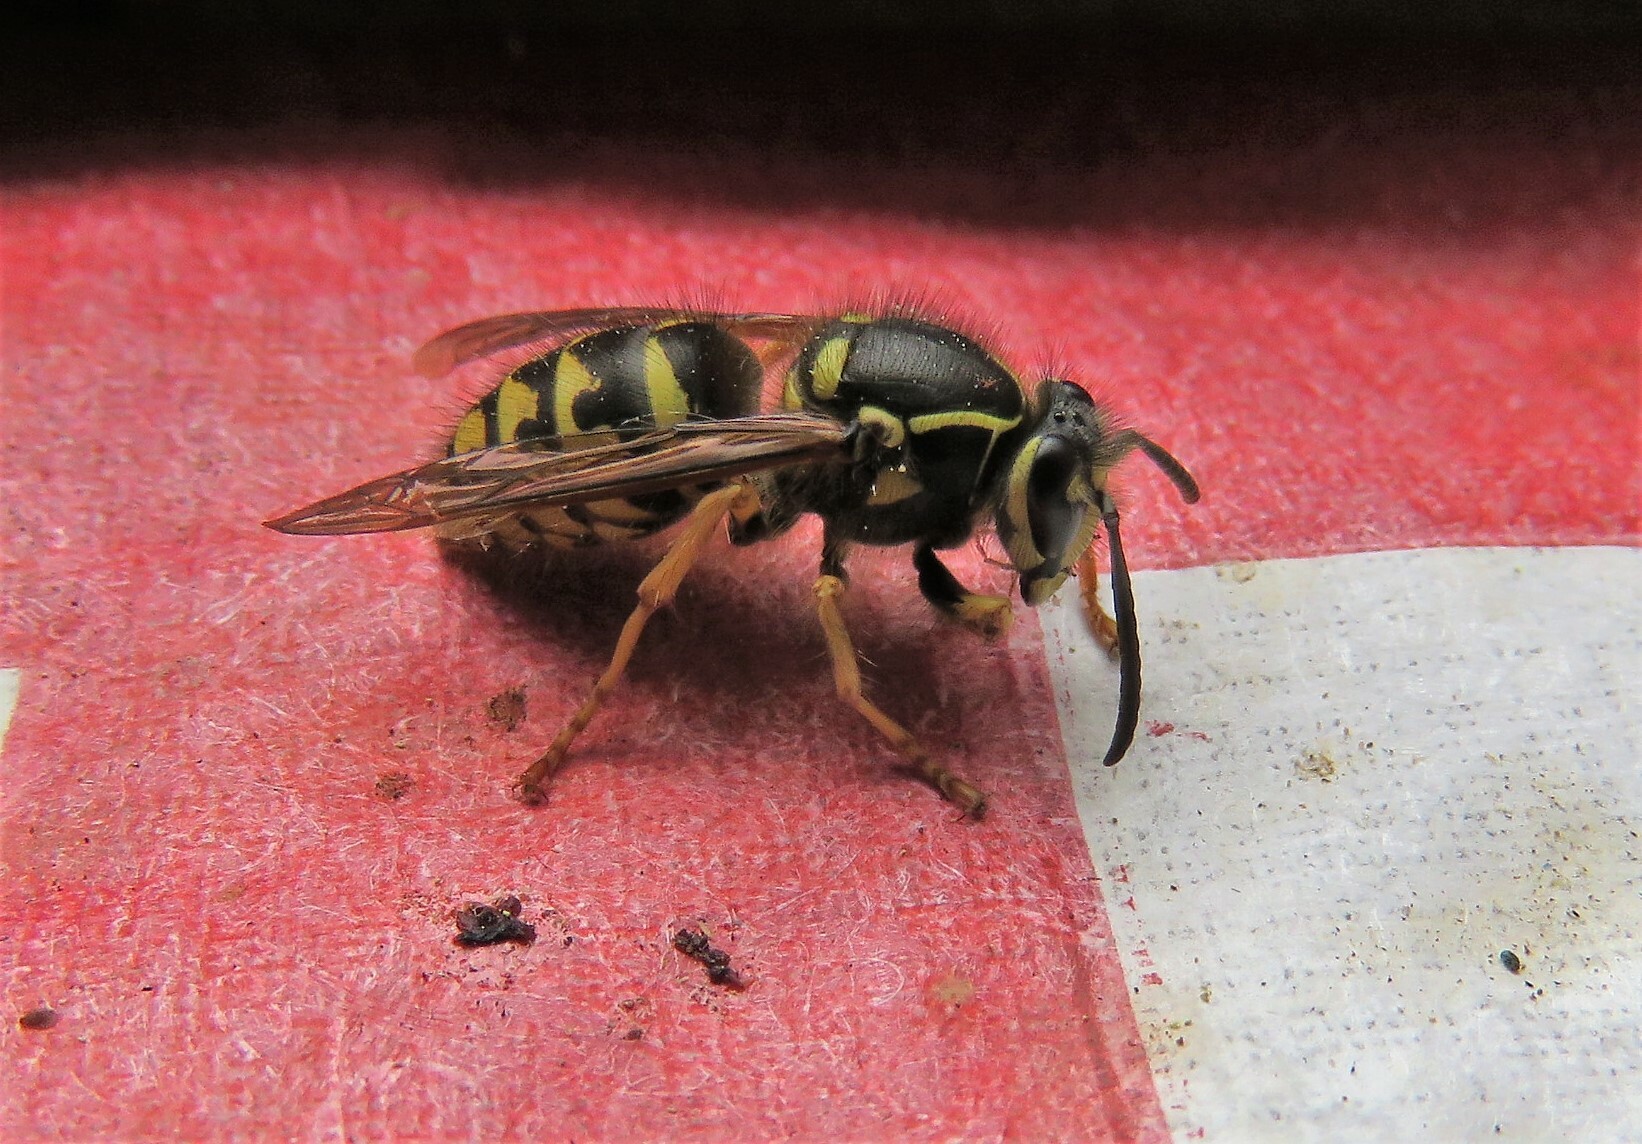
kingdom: Animalia
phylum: Arthropoda
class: Insecta
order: Hymenoptera
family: Vespidae
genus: Dolichovespula
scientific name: Dolichovespula arenaria
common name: Aerial yellowjacket
